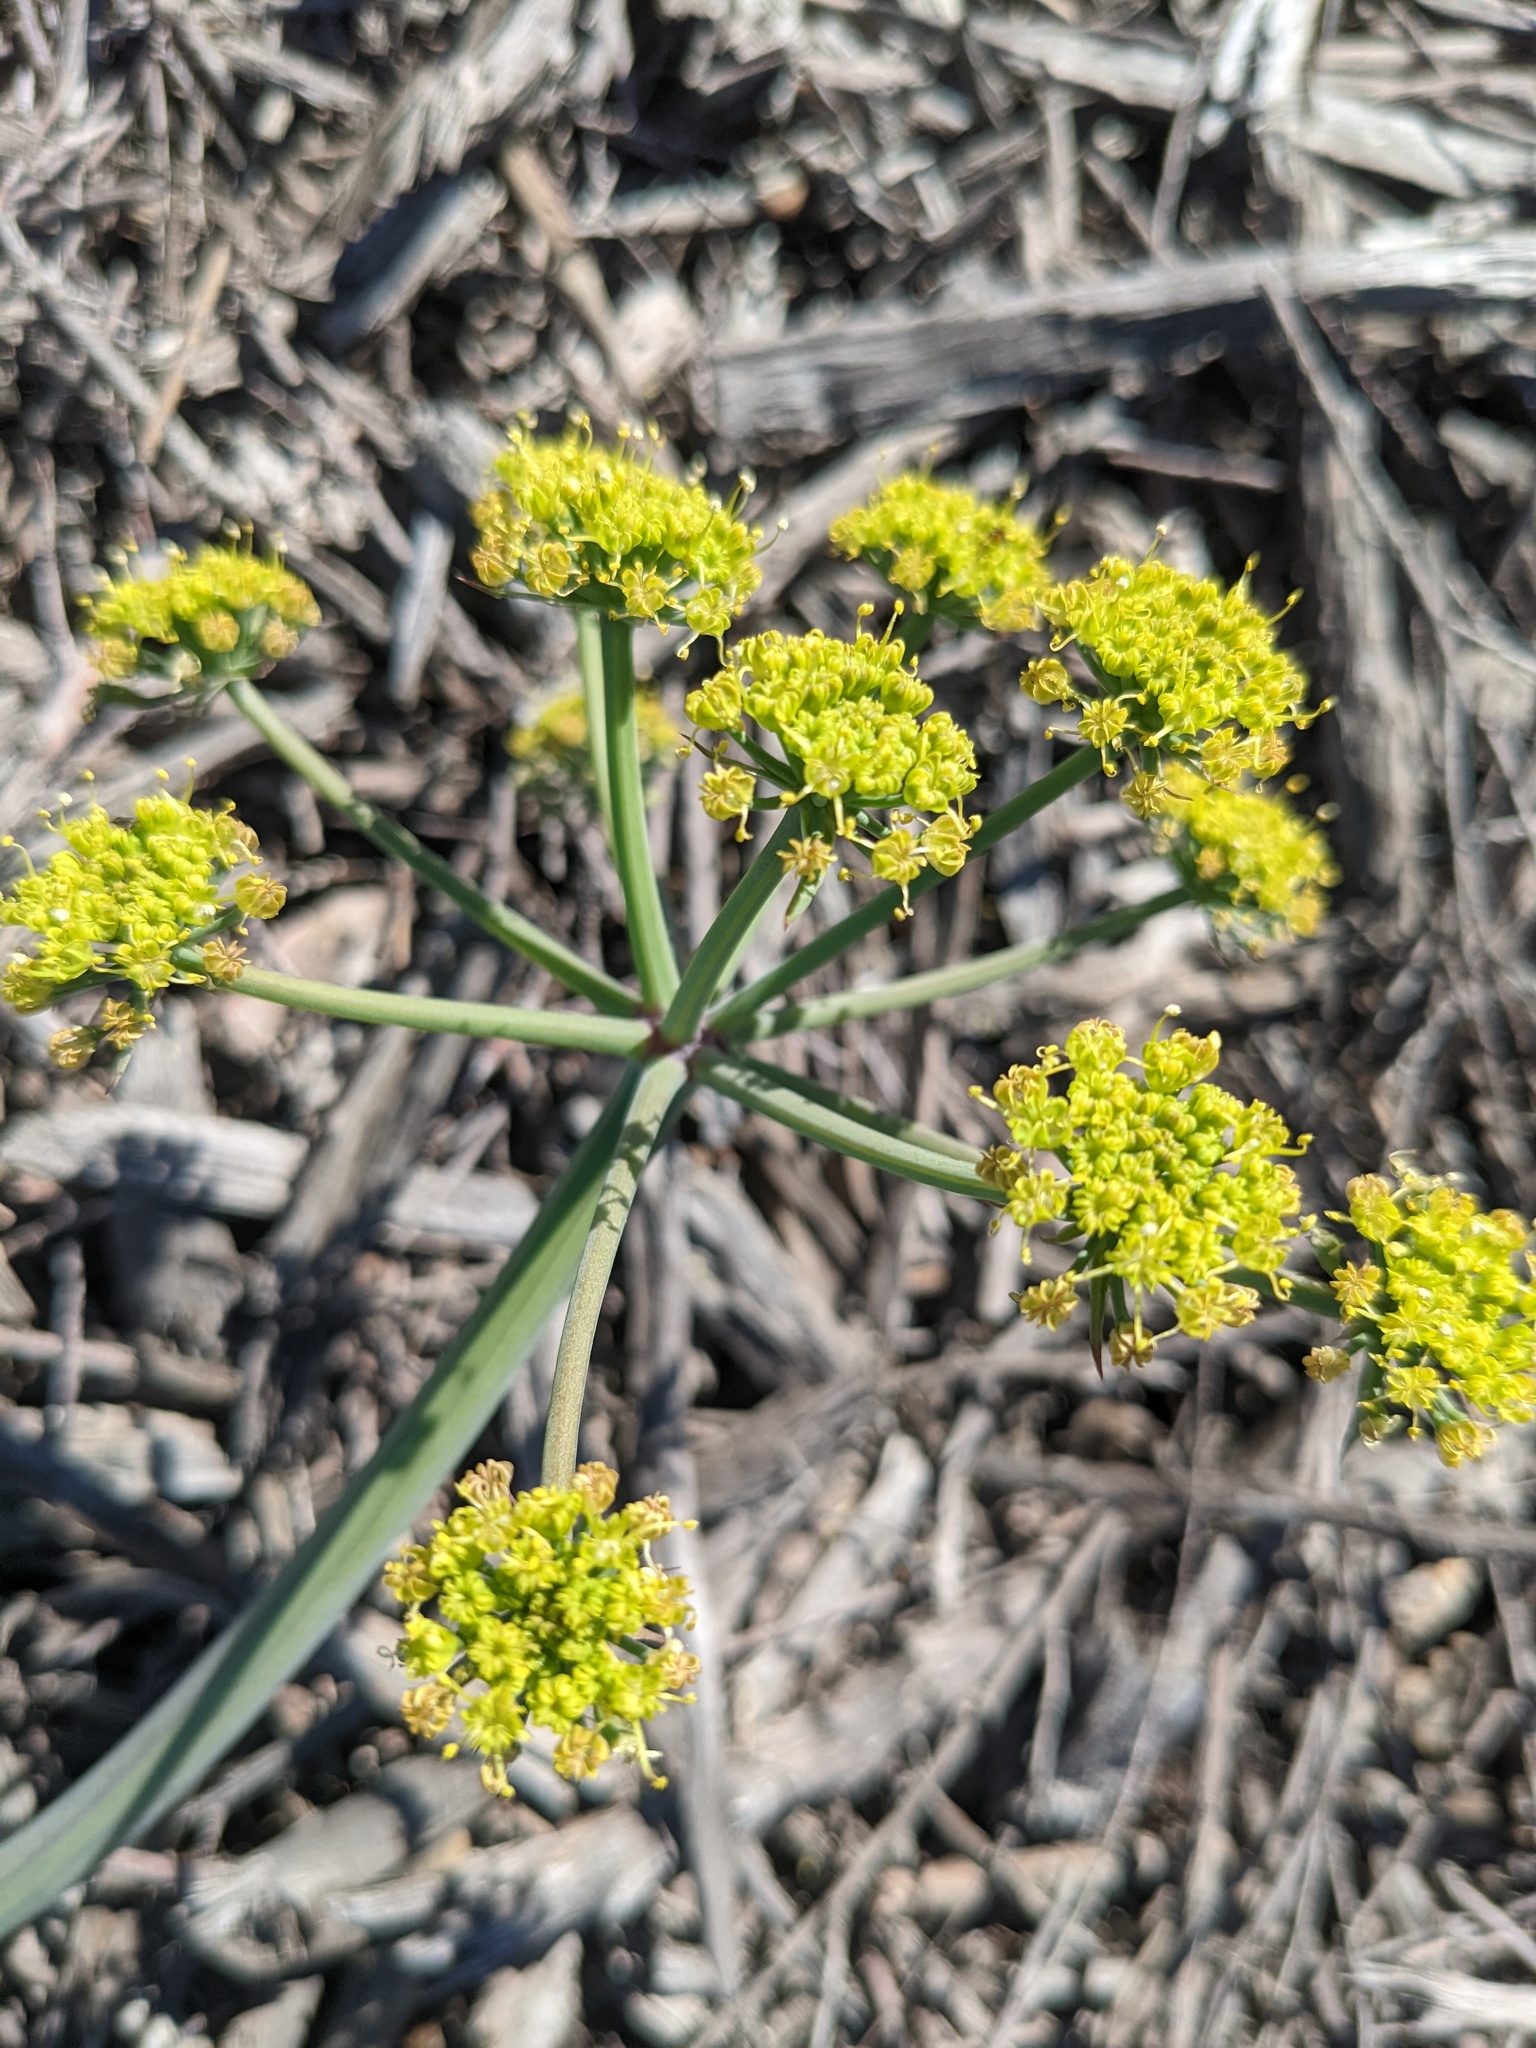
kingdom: Plantae
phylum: Tracheophyta
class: Magnoliopsida
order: Apiales
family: Apiaceae
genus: Lomatium
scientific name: Lomatium lucidum
